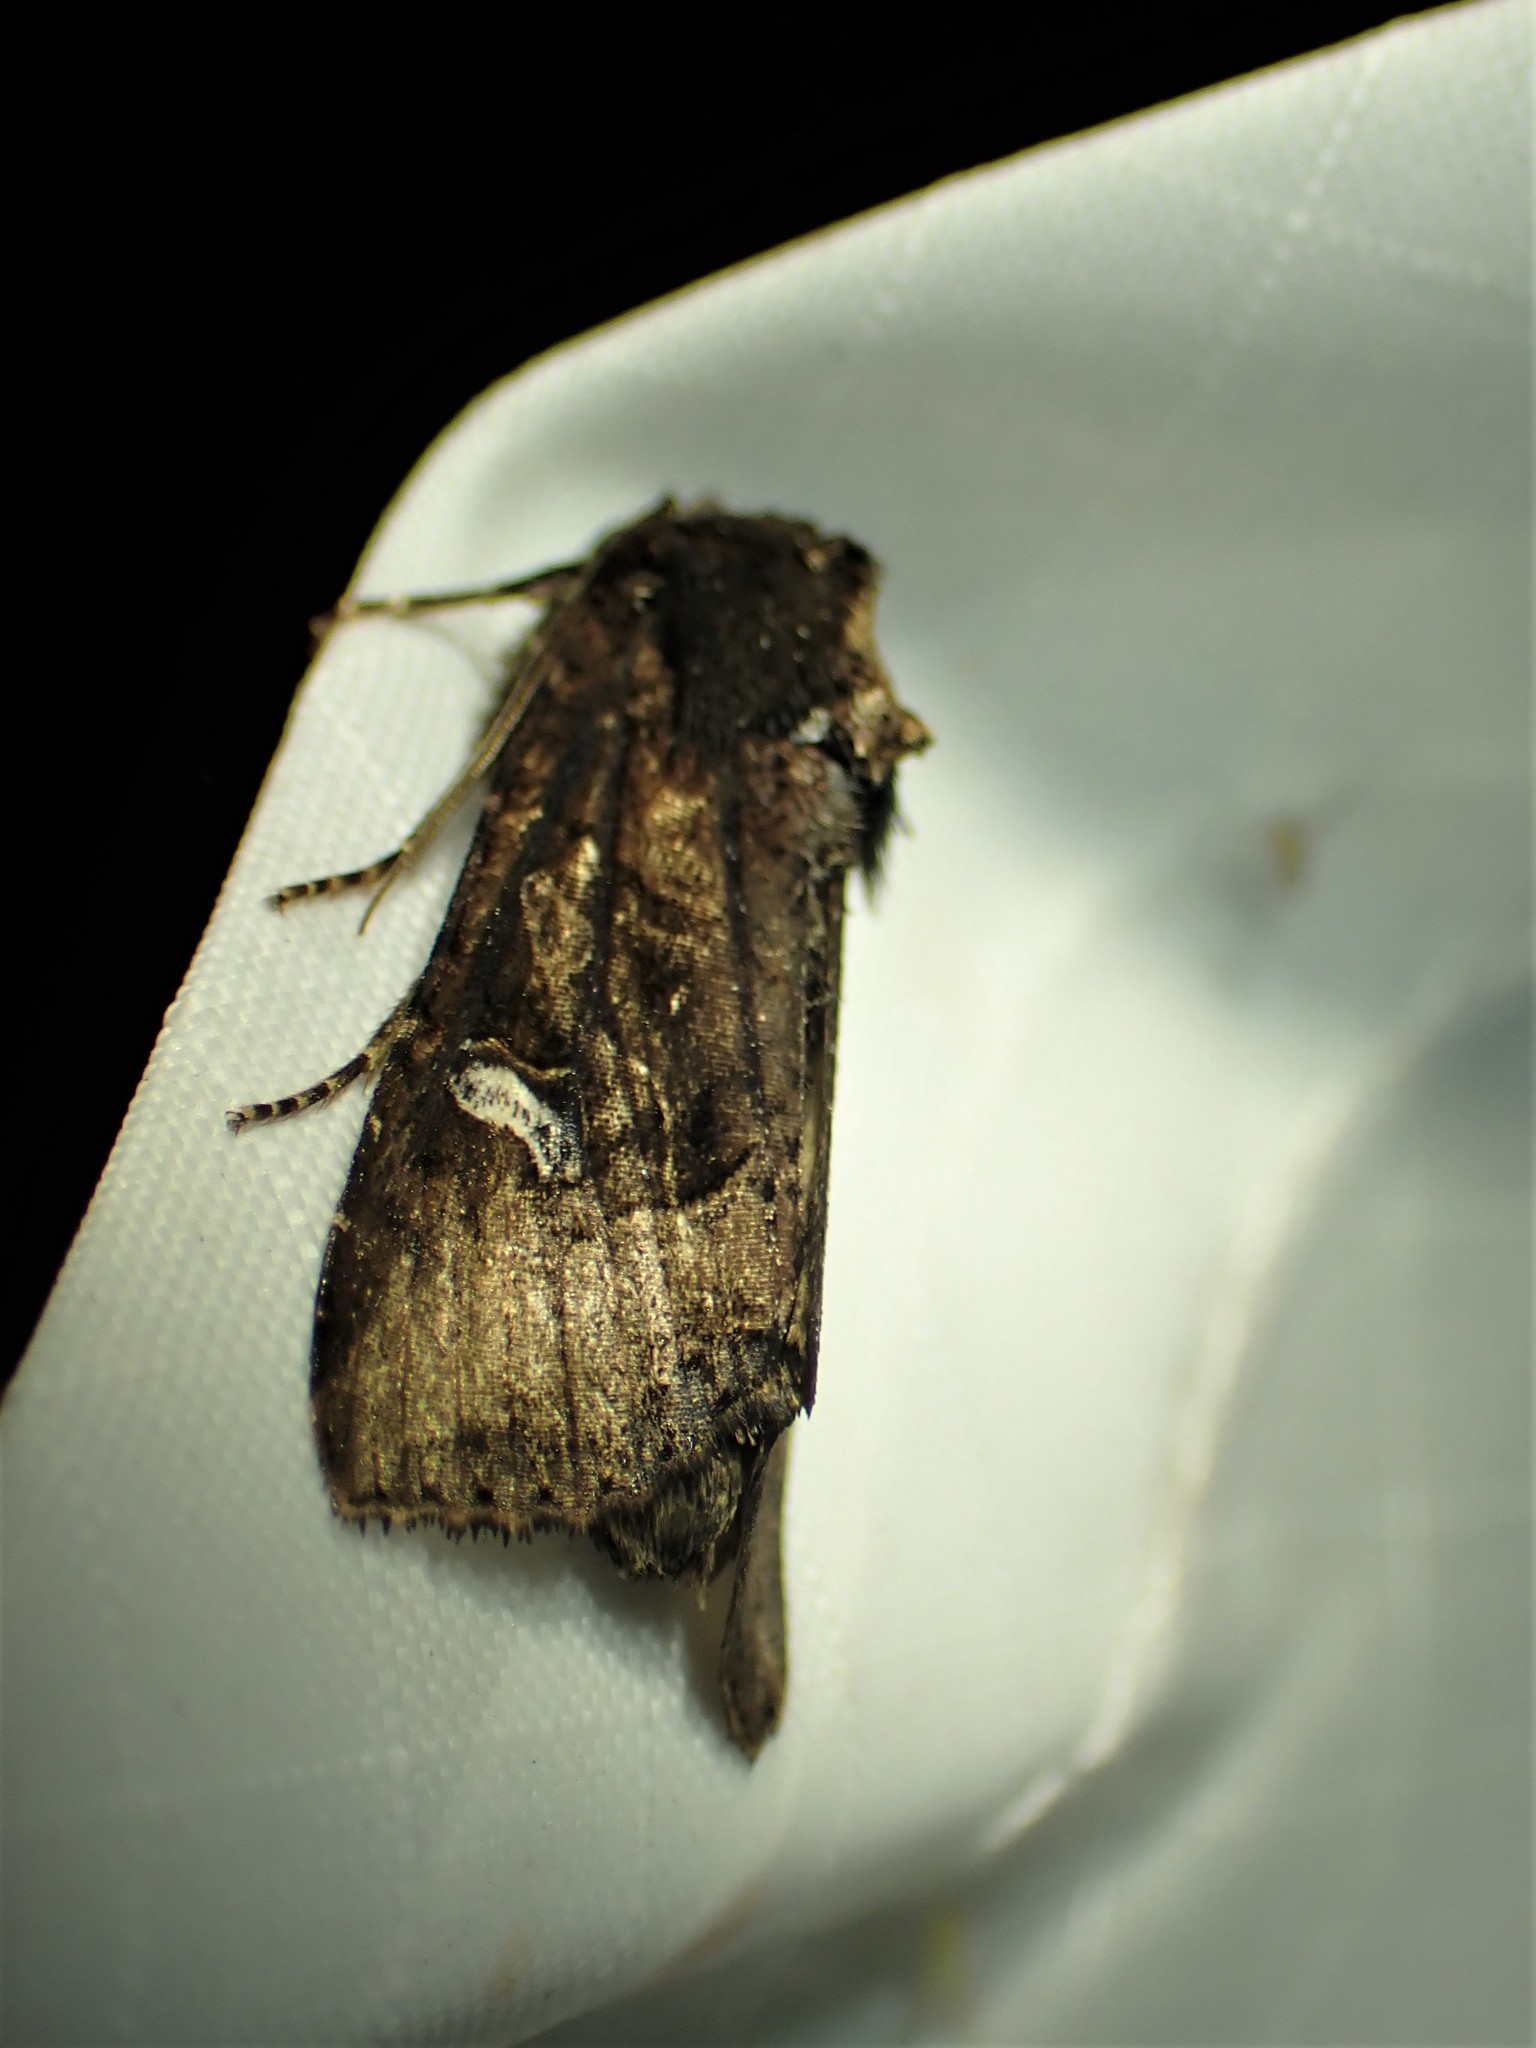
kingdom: Animalia
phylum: Arthropoda
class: Insecta
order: Lepidoptera
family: Noctuidae
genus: Helotropha
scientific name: Helotropha reniformis
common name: Kidney-spotted rustic moth
